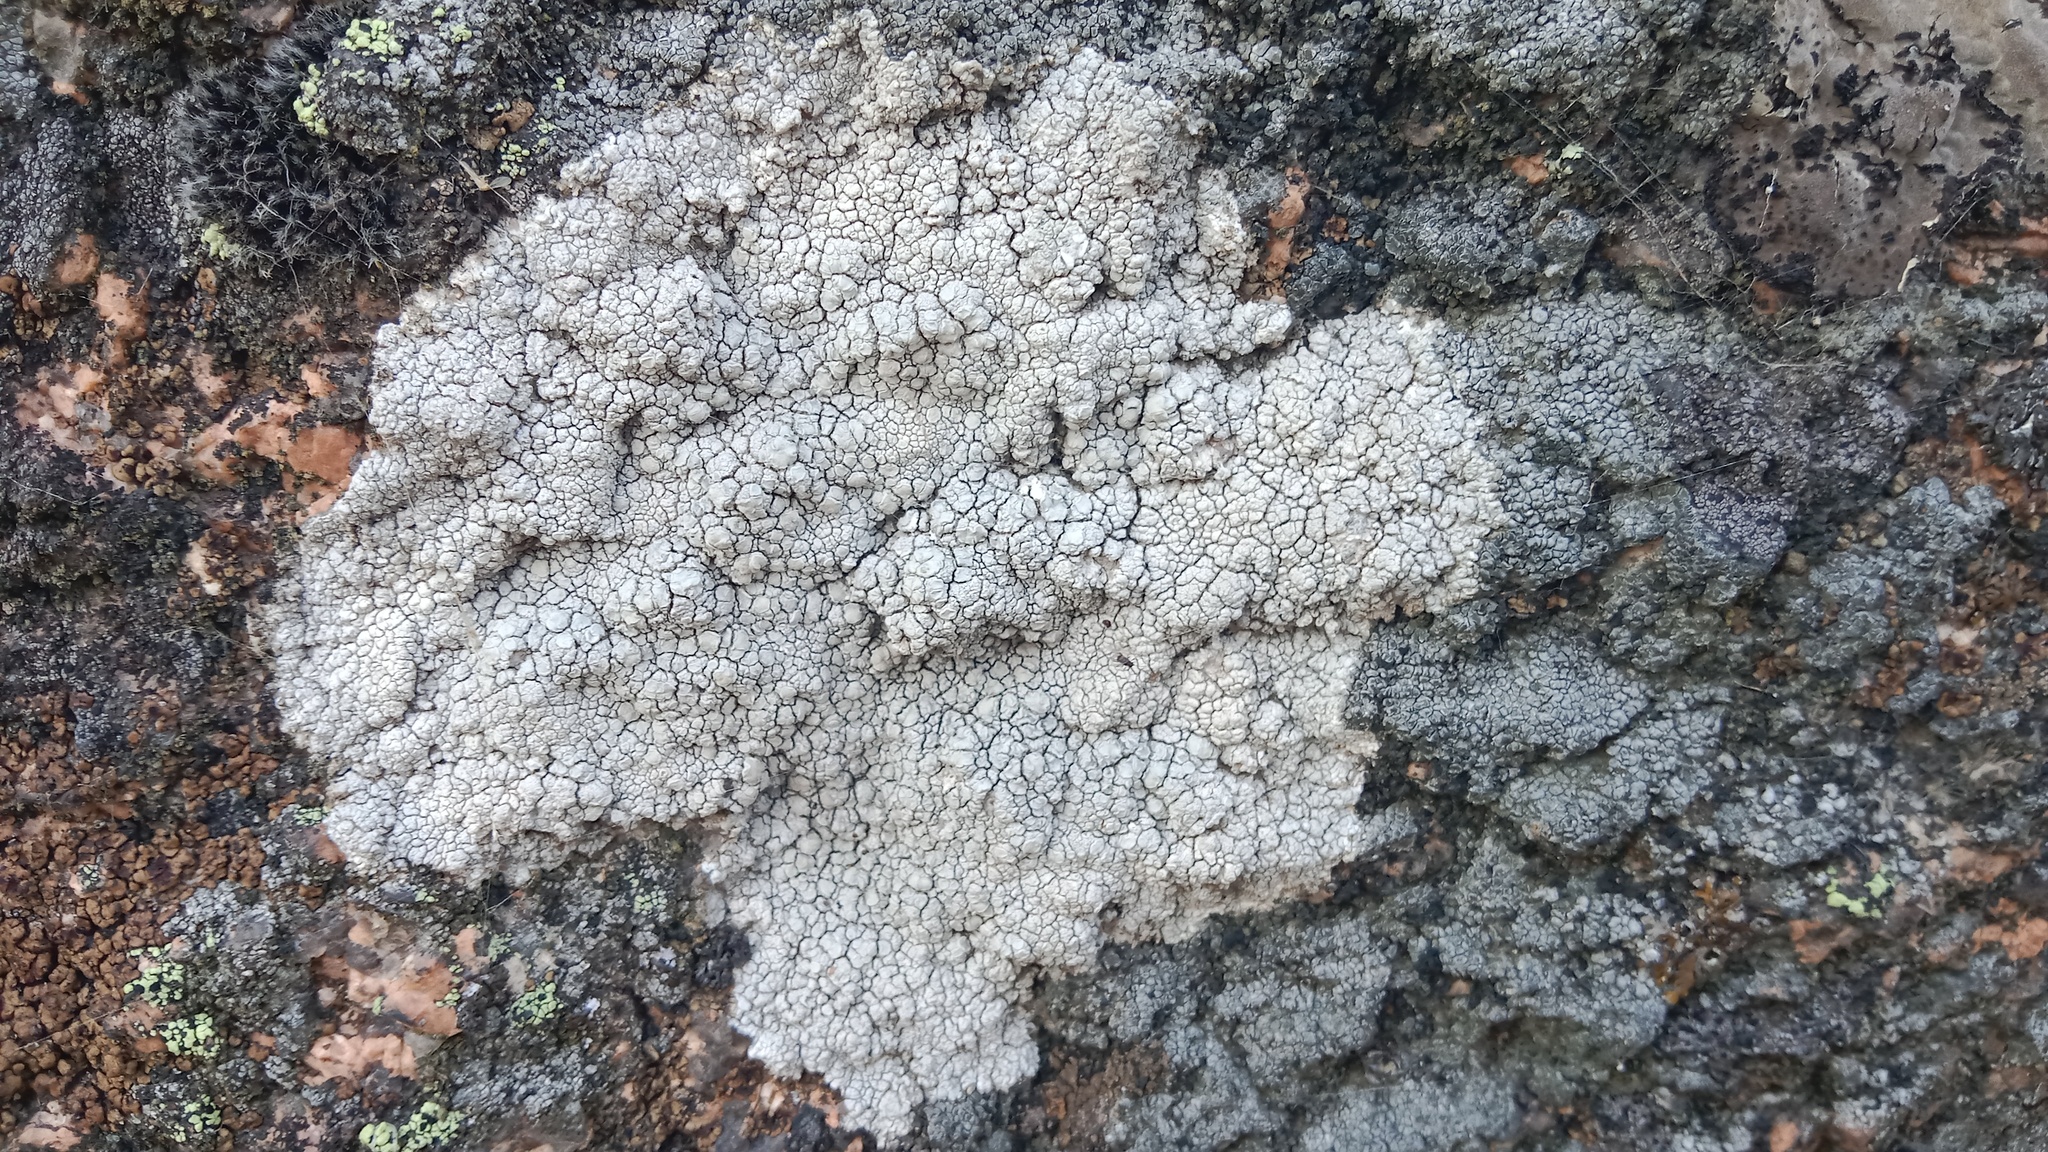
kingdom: Fungi
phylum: Ascomycota
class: Lecanoromycetes
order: Pertusariales
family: Megasporaceae
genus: Aspiciliella
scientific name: Aspiciliella intermutans
